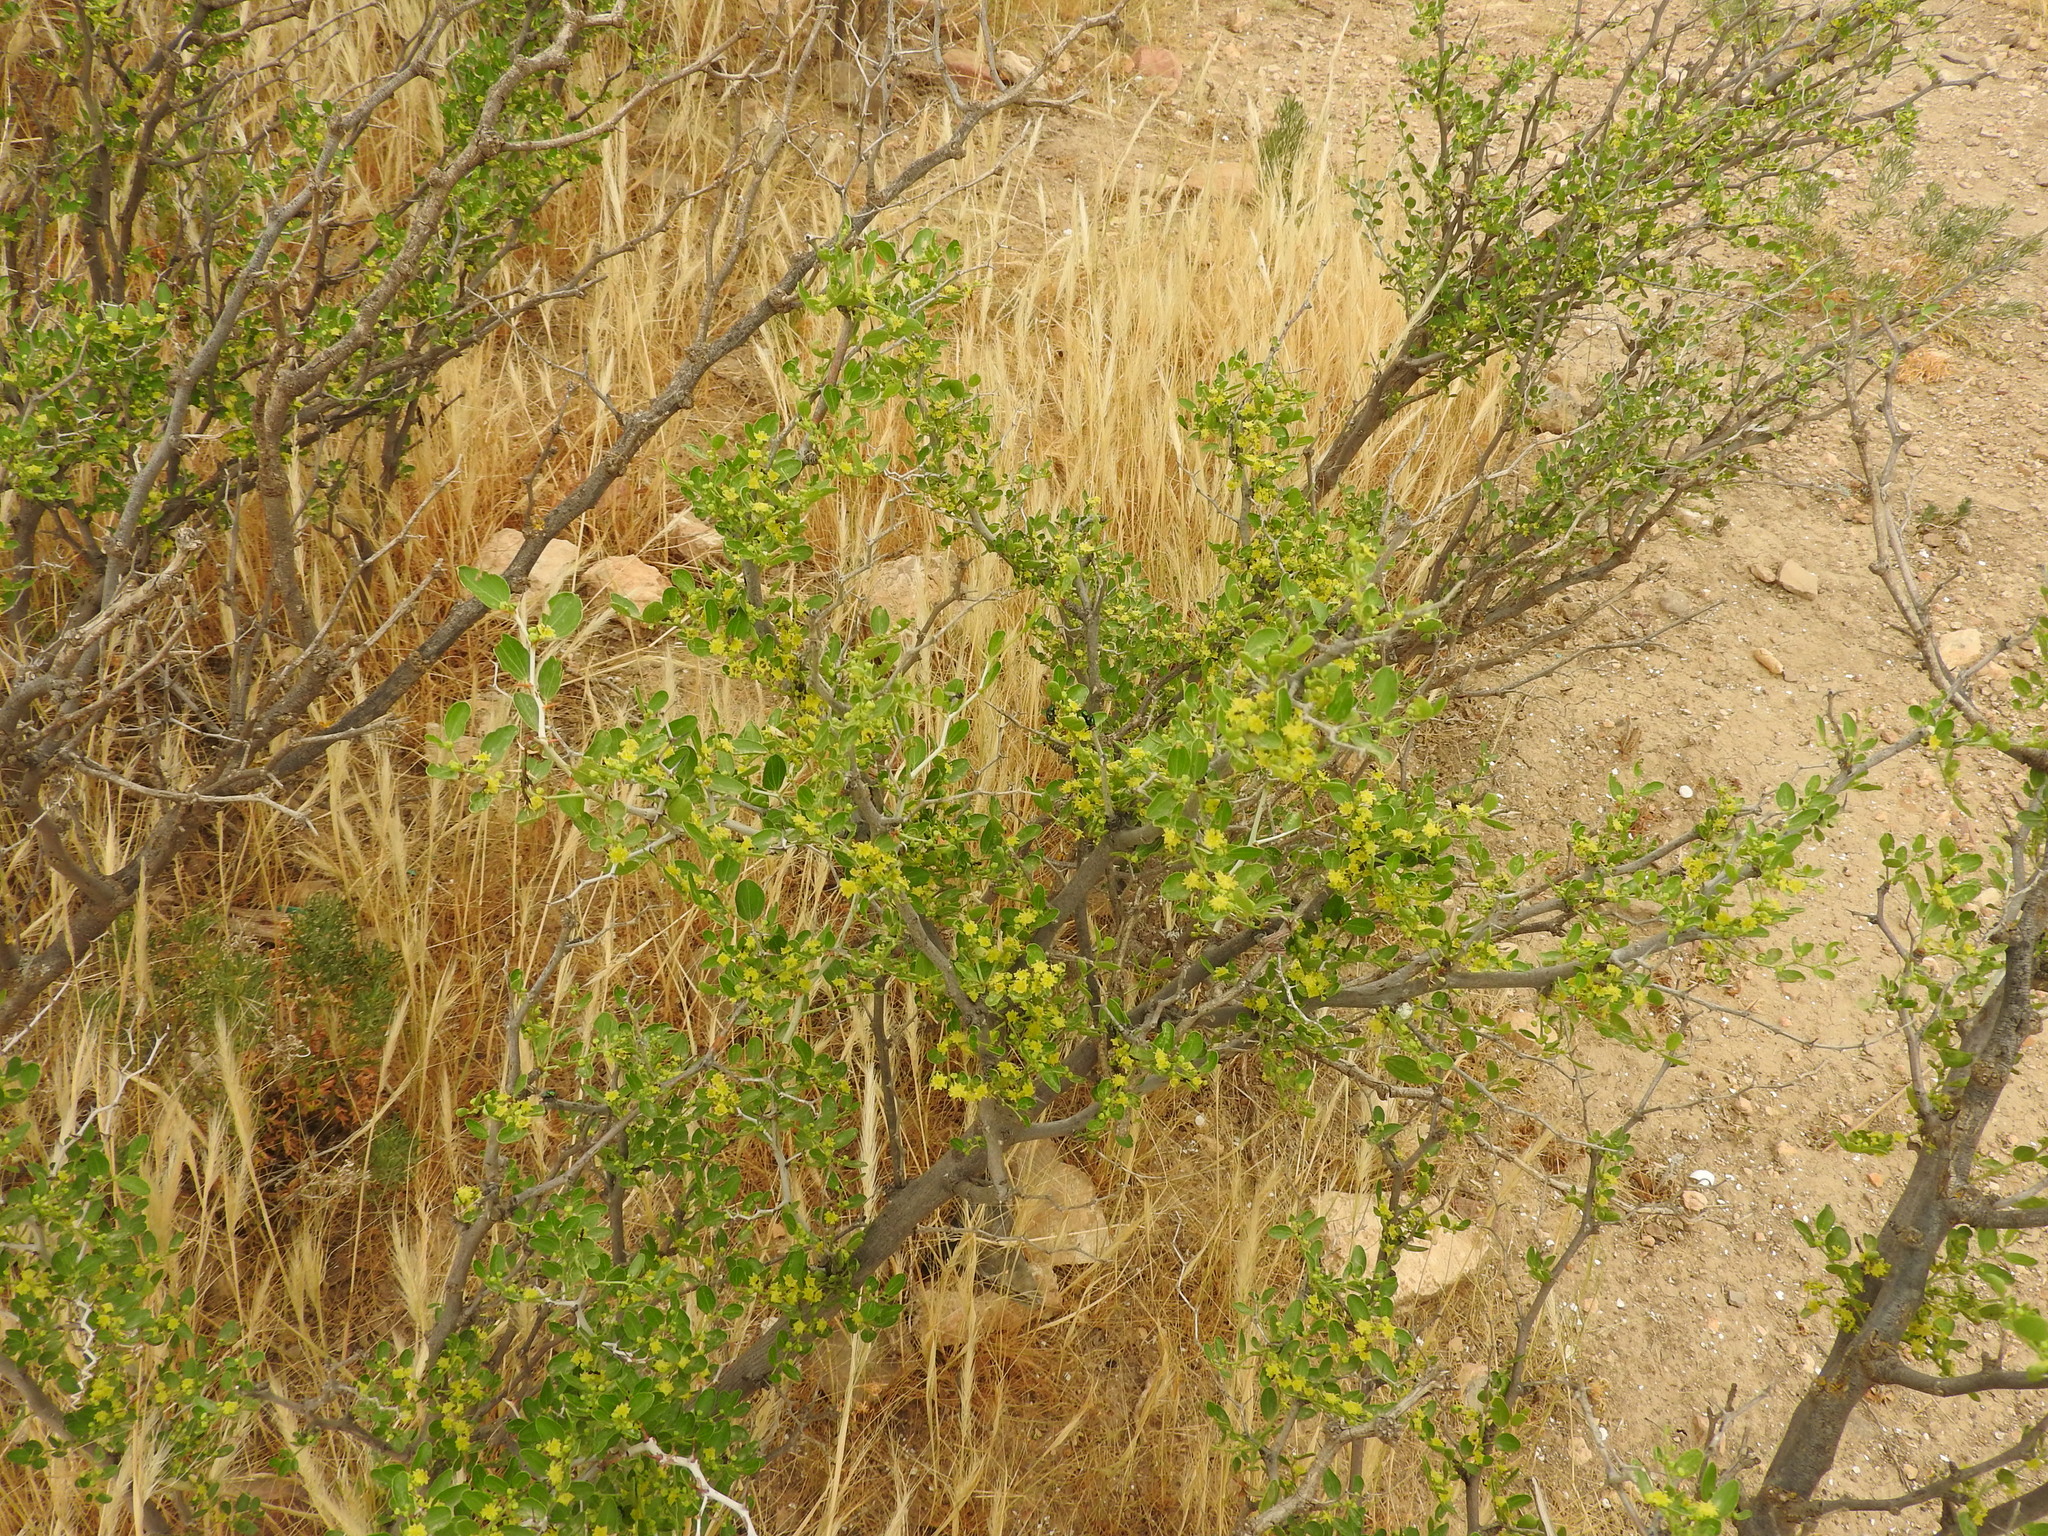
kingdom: Plantae
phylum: Tracheophyta
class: Magnoliopsida
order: Rosales
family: Rhamnaceae
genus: Ziziphus
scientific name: Ziziphus lotus
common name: Lotus
